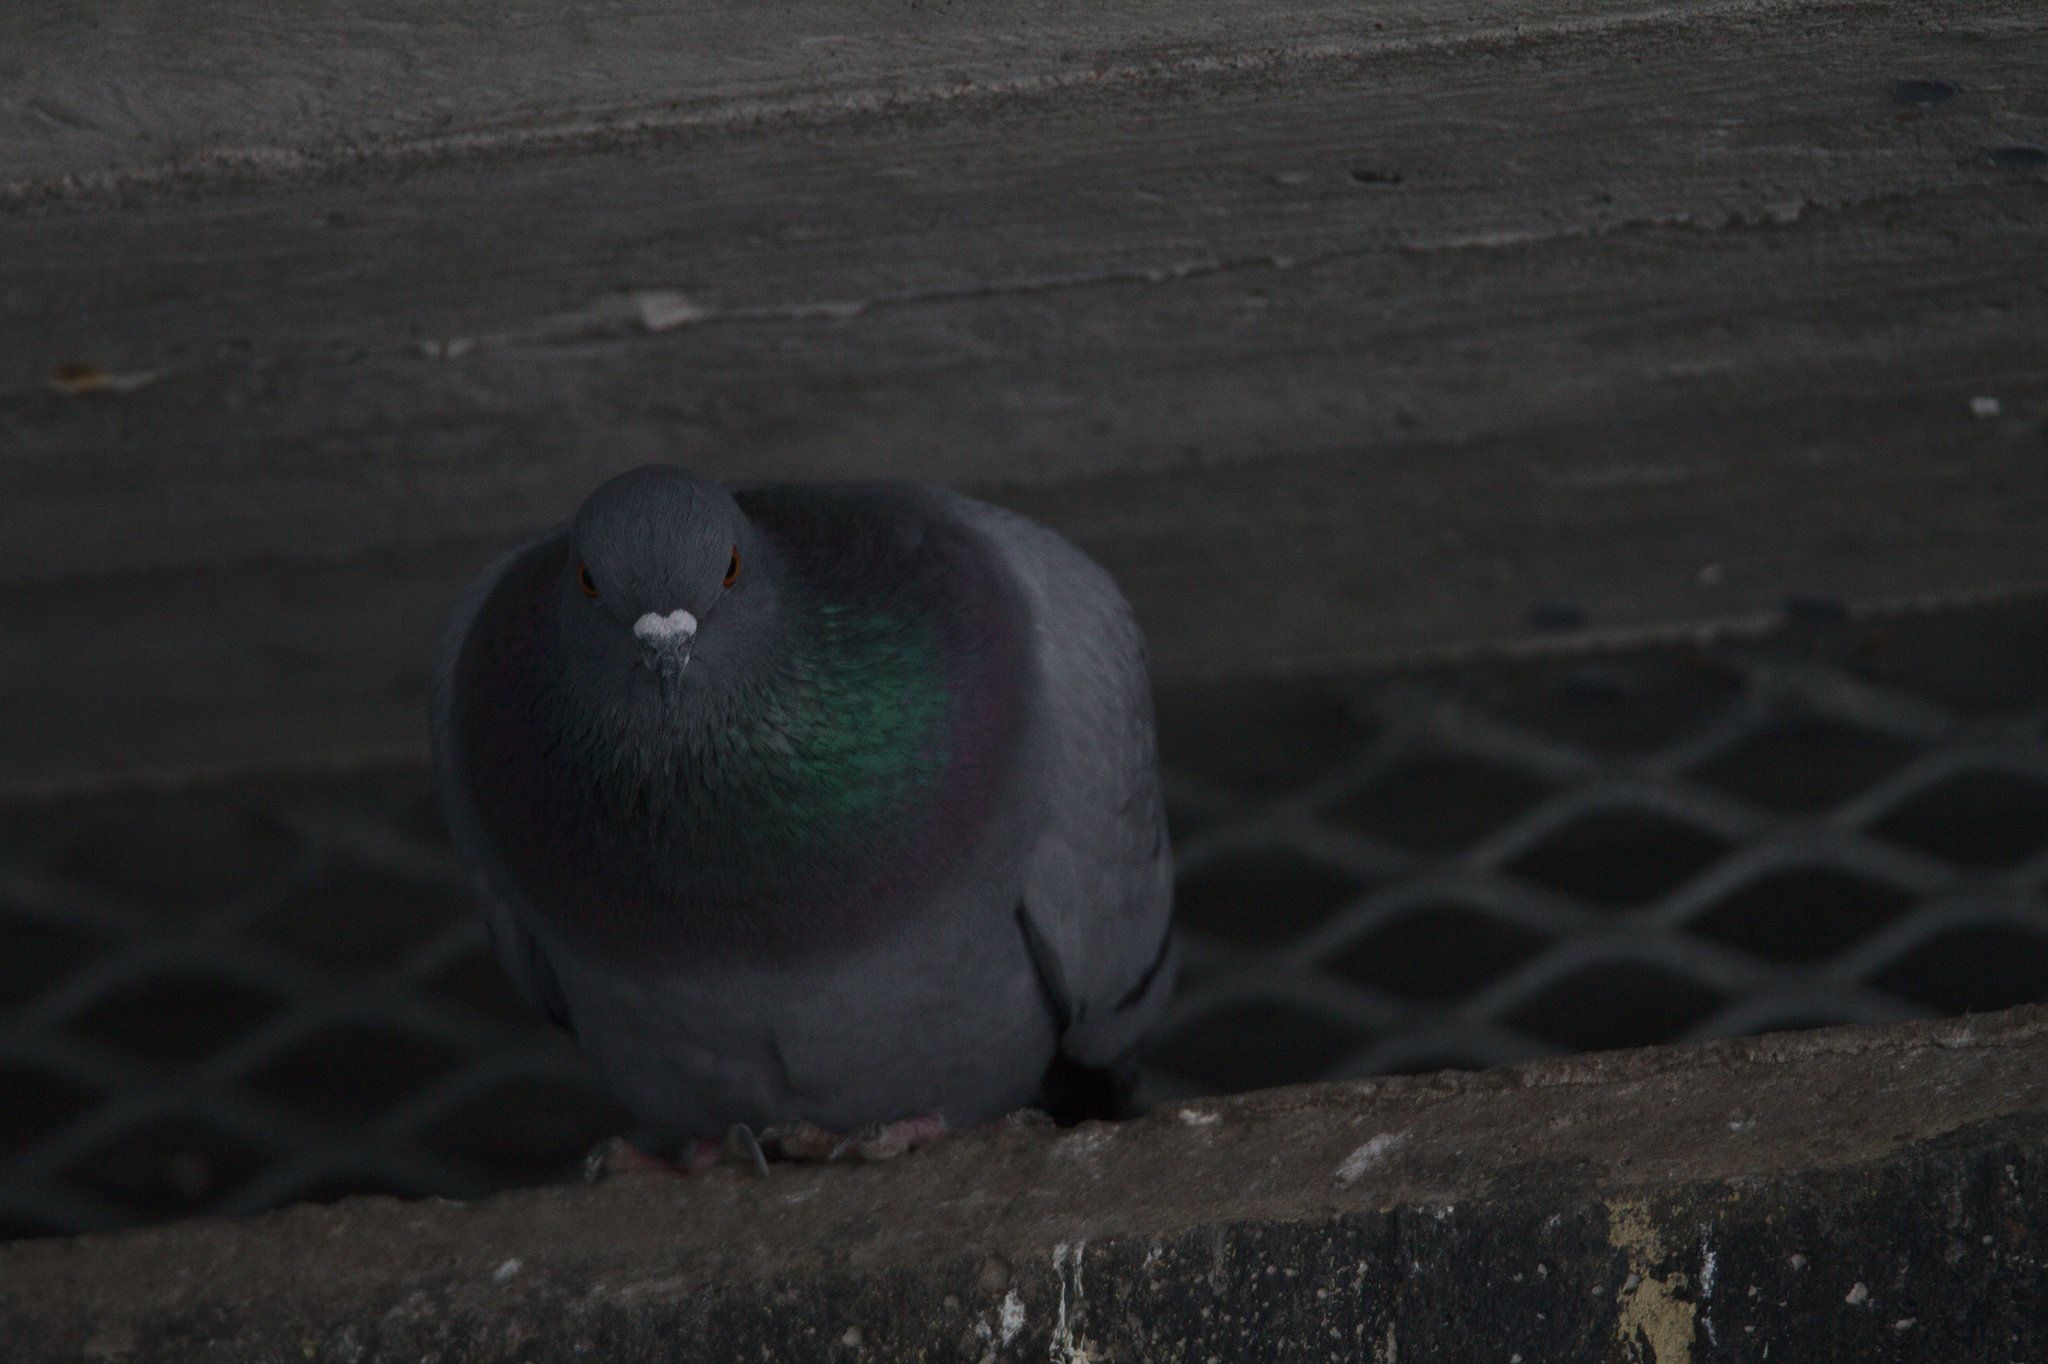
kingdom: Animalia
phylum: Chordata
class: Aves
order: Columbiformes
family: Columbidae
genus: Columba
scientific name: Columba livia
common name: Rock pigeon
